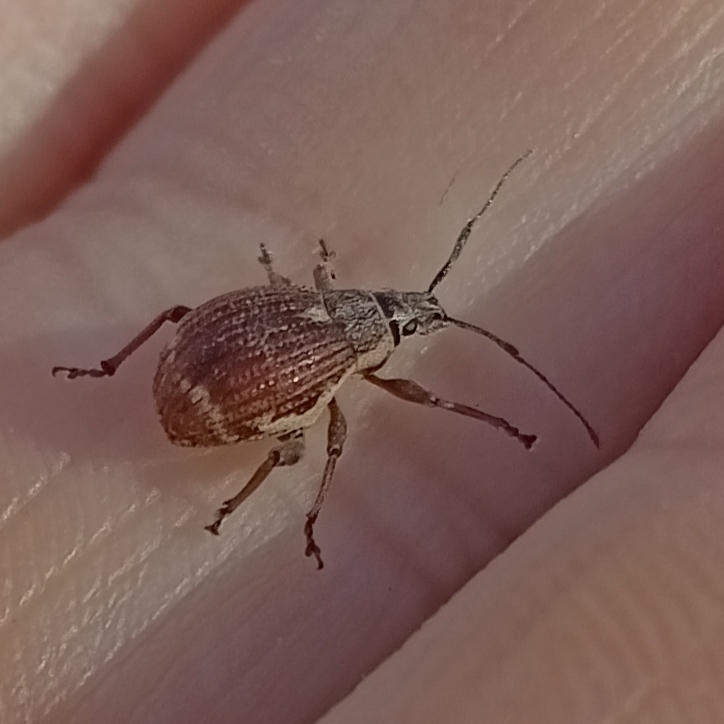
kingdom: Animalia
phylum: Arthropoda
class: Insecta
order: Coleoptera
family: Curculionidae
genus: Sciobius
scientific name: Sciobius pullus
